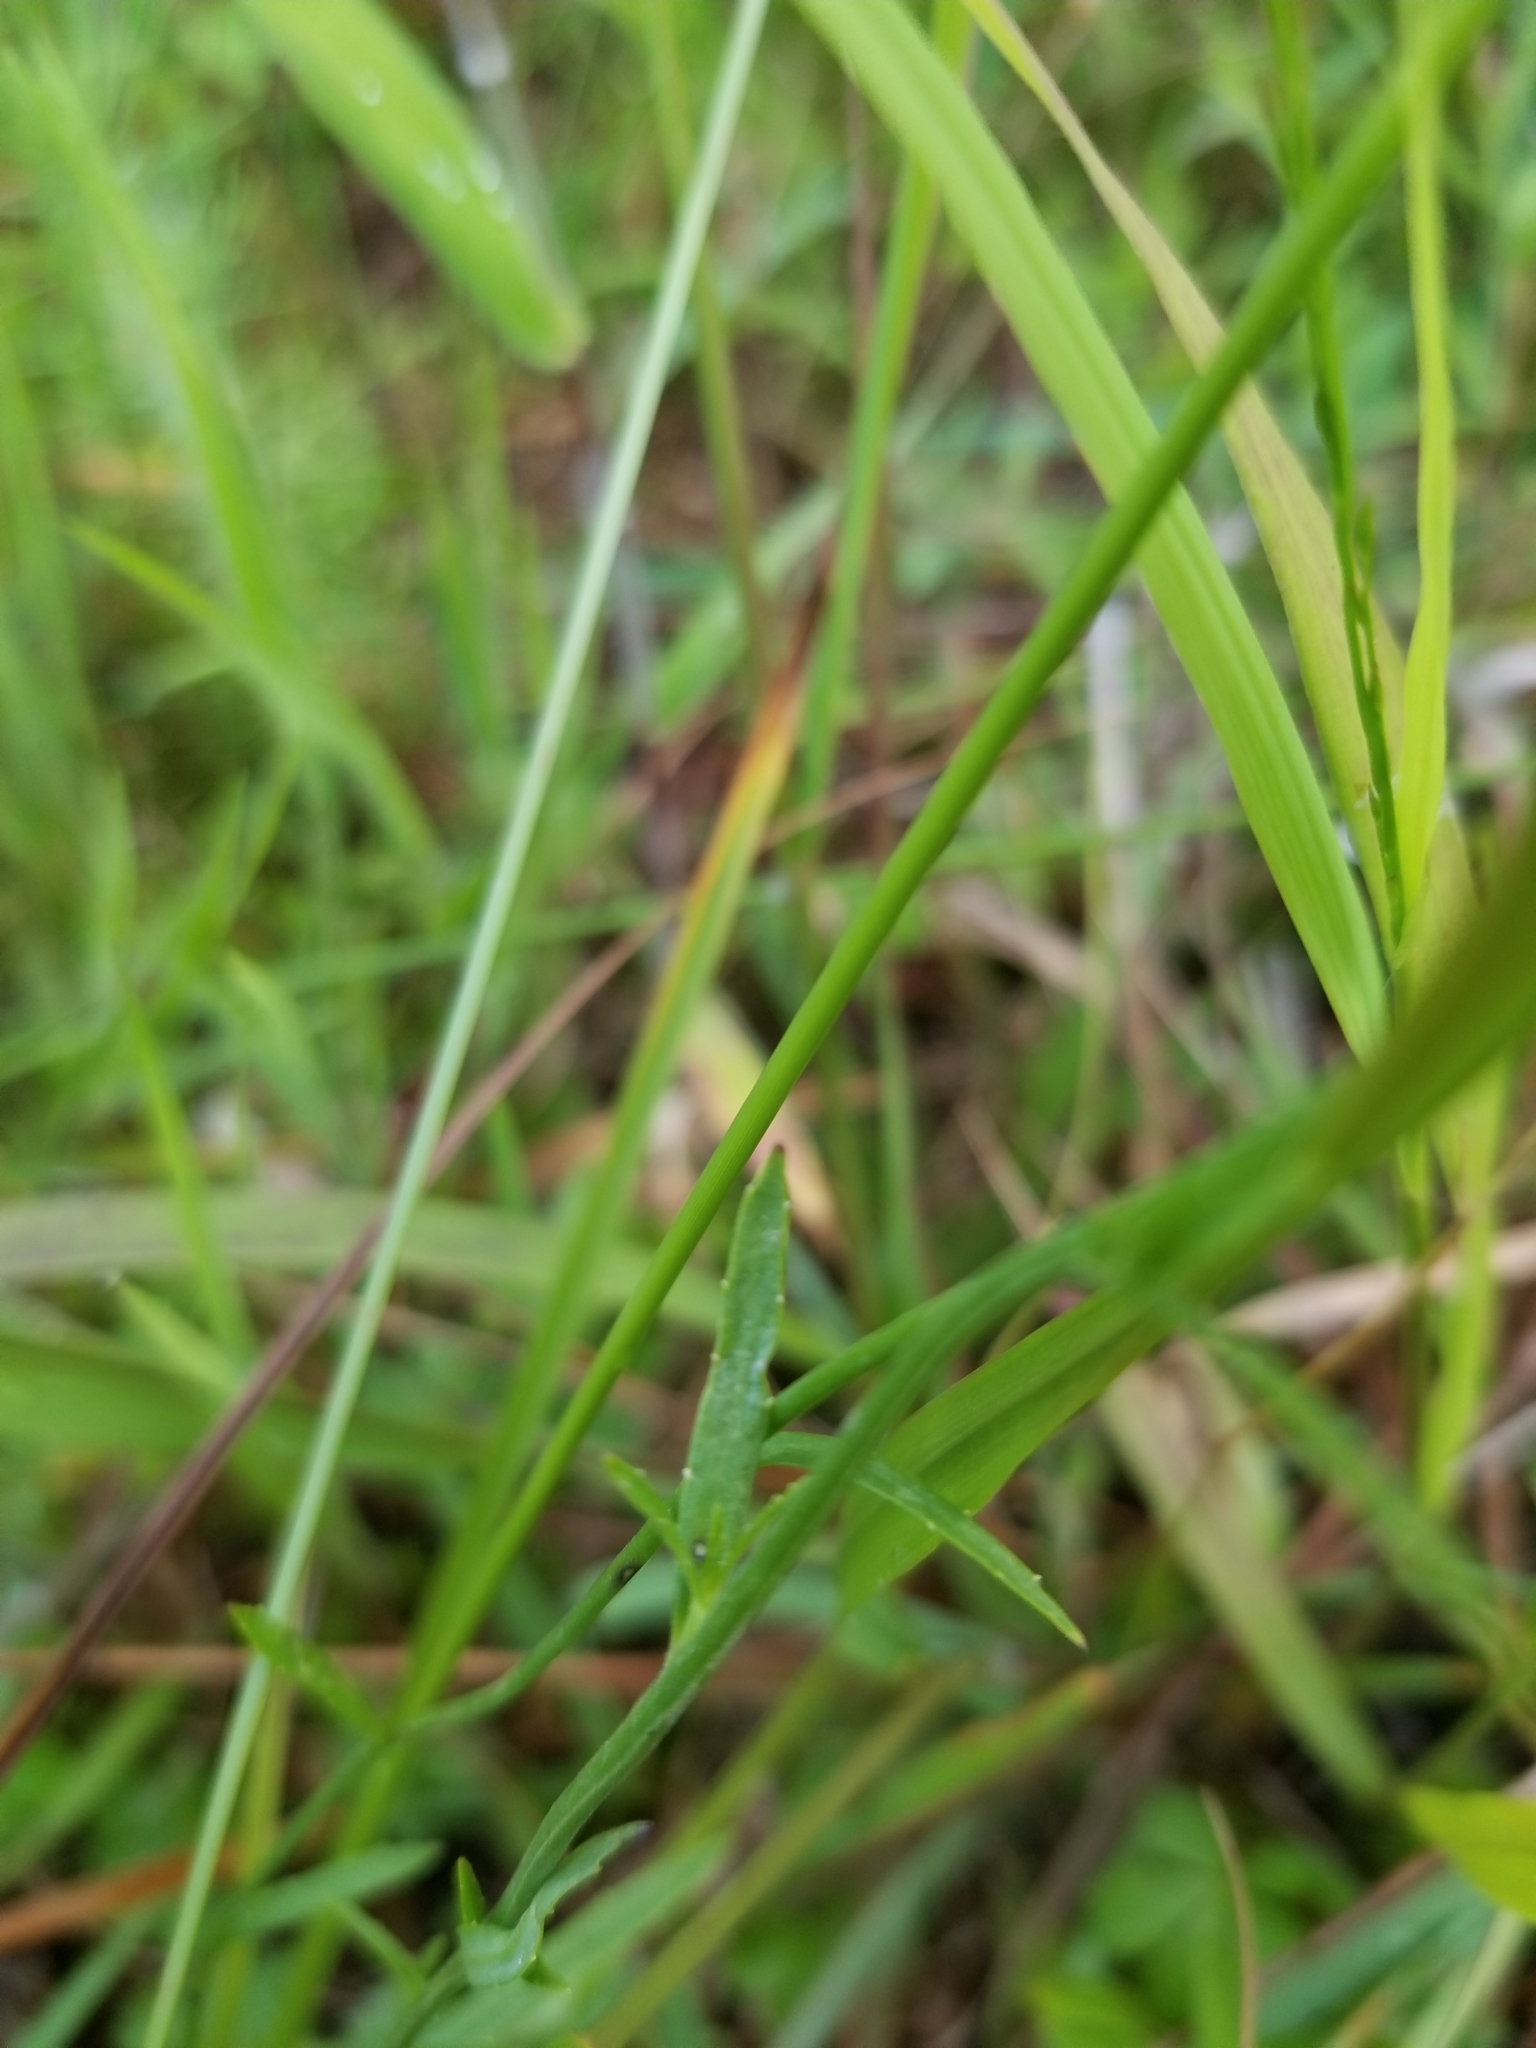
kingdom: Plantae
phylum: Tracheophyta
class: Magnoliopsida
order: Asterales
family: Campanulaceae
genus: Lobelia
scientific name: Lobelia nuttallii
